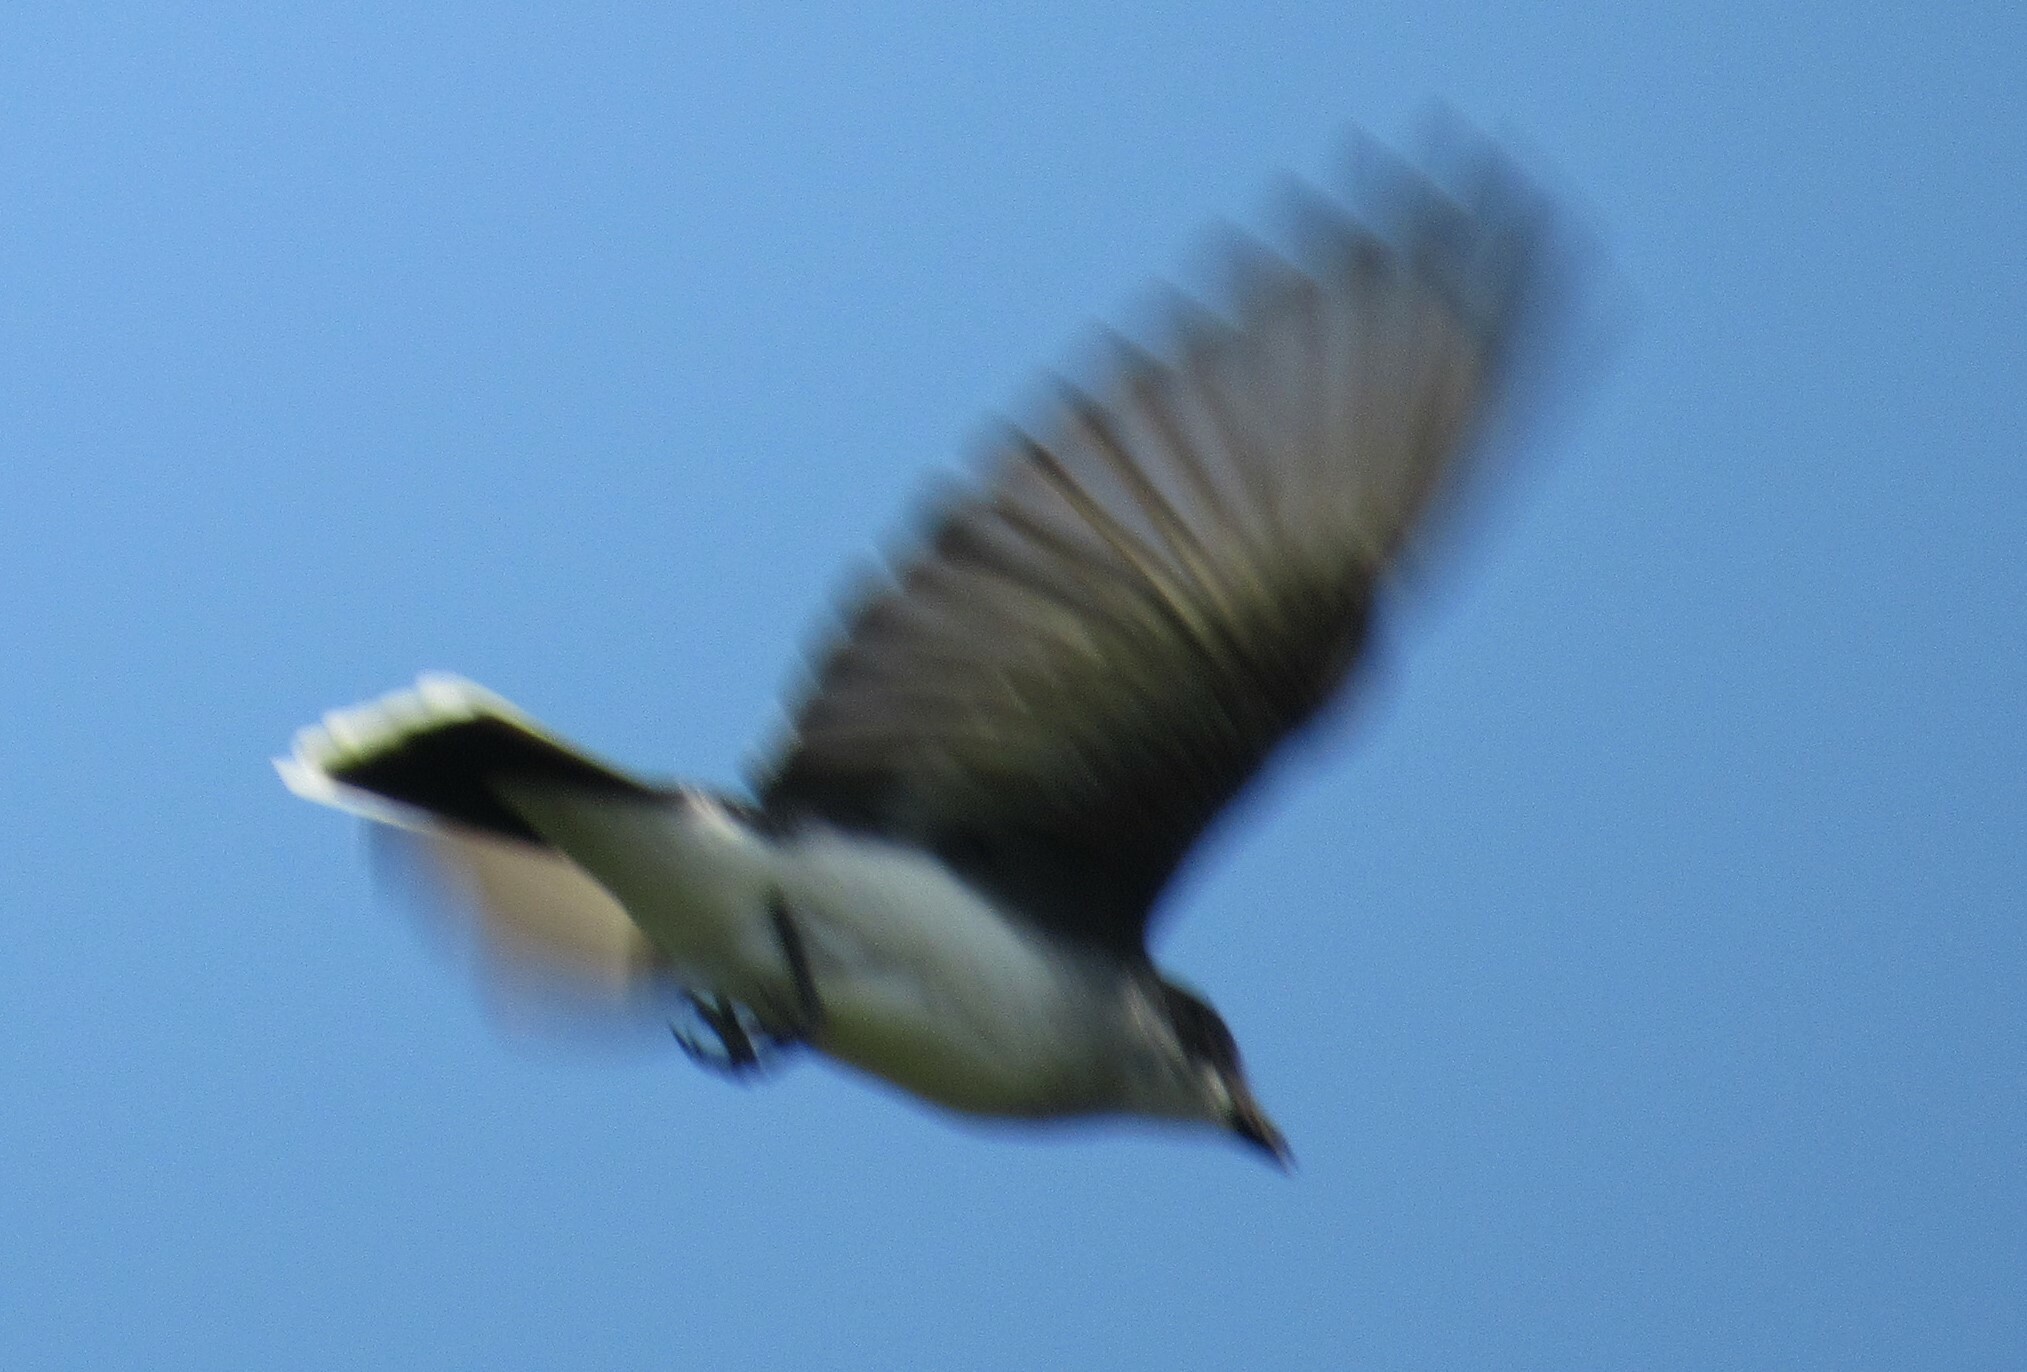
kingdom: Animalia
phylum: Chordata
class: Aves
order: Passeriformes
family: Tyrannidae
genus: Tyrannus
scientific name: Tyrannus tyrannus
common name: Eastern kingbird
